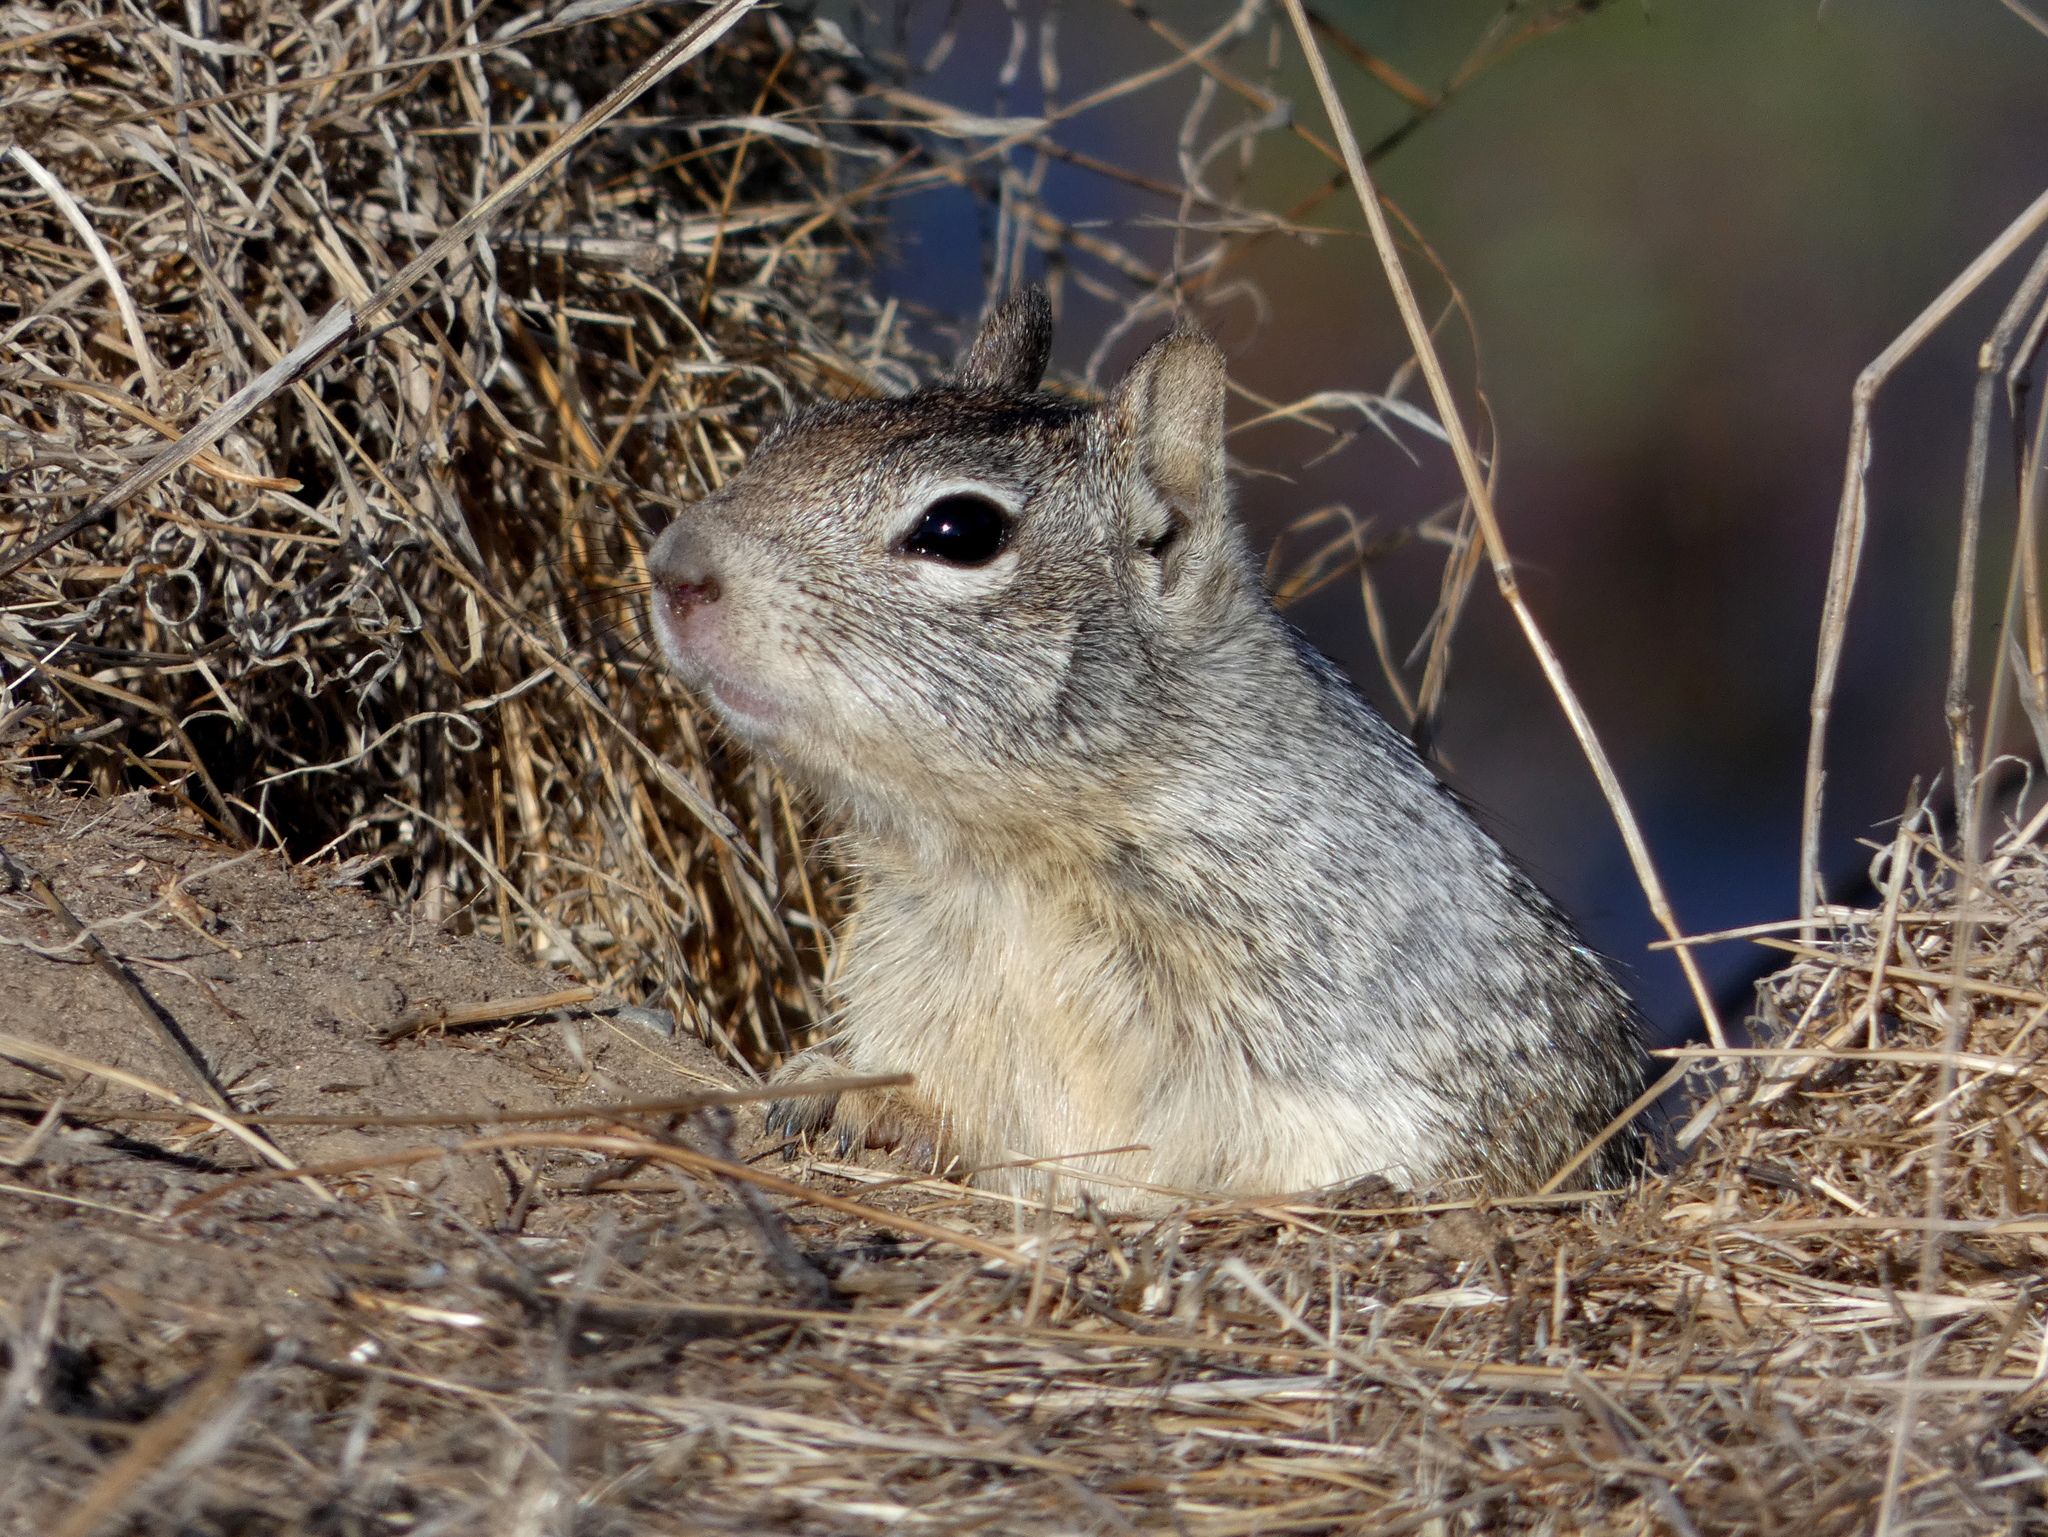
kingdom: Animalia
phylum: Chordata
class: Mammalia
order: Rodentia
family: Sciuridae
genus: Otospermophilus
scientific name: Otospermophilus beecheyi
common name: California ground squirrel
